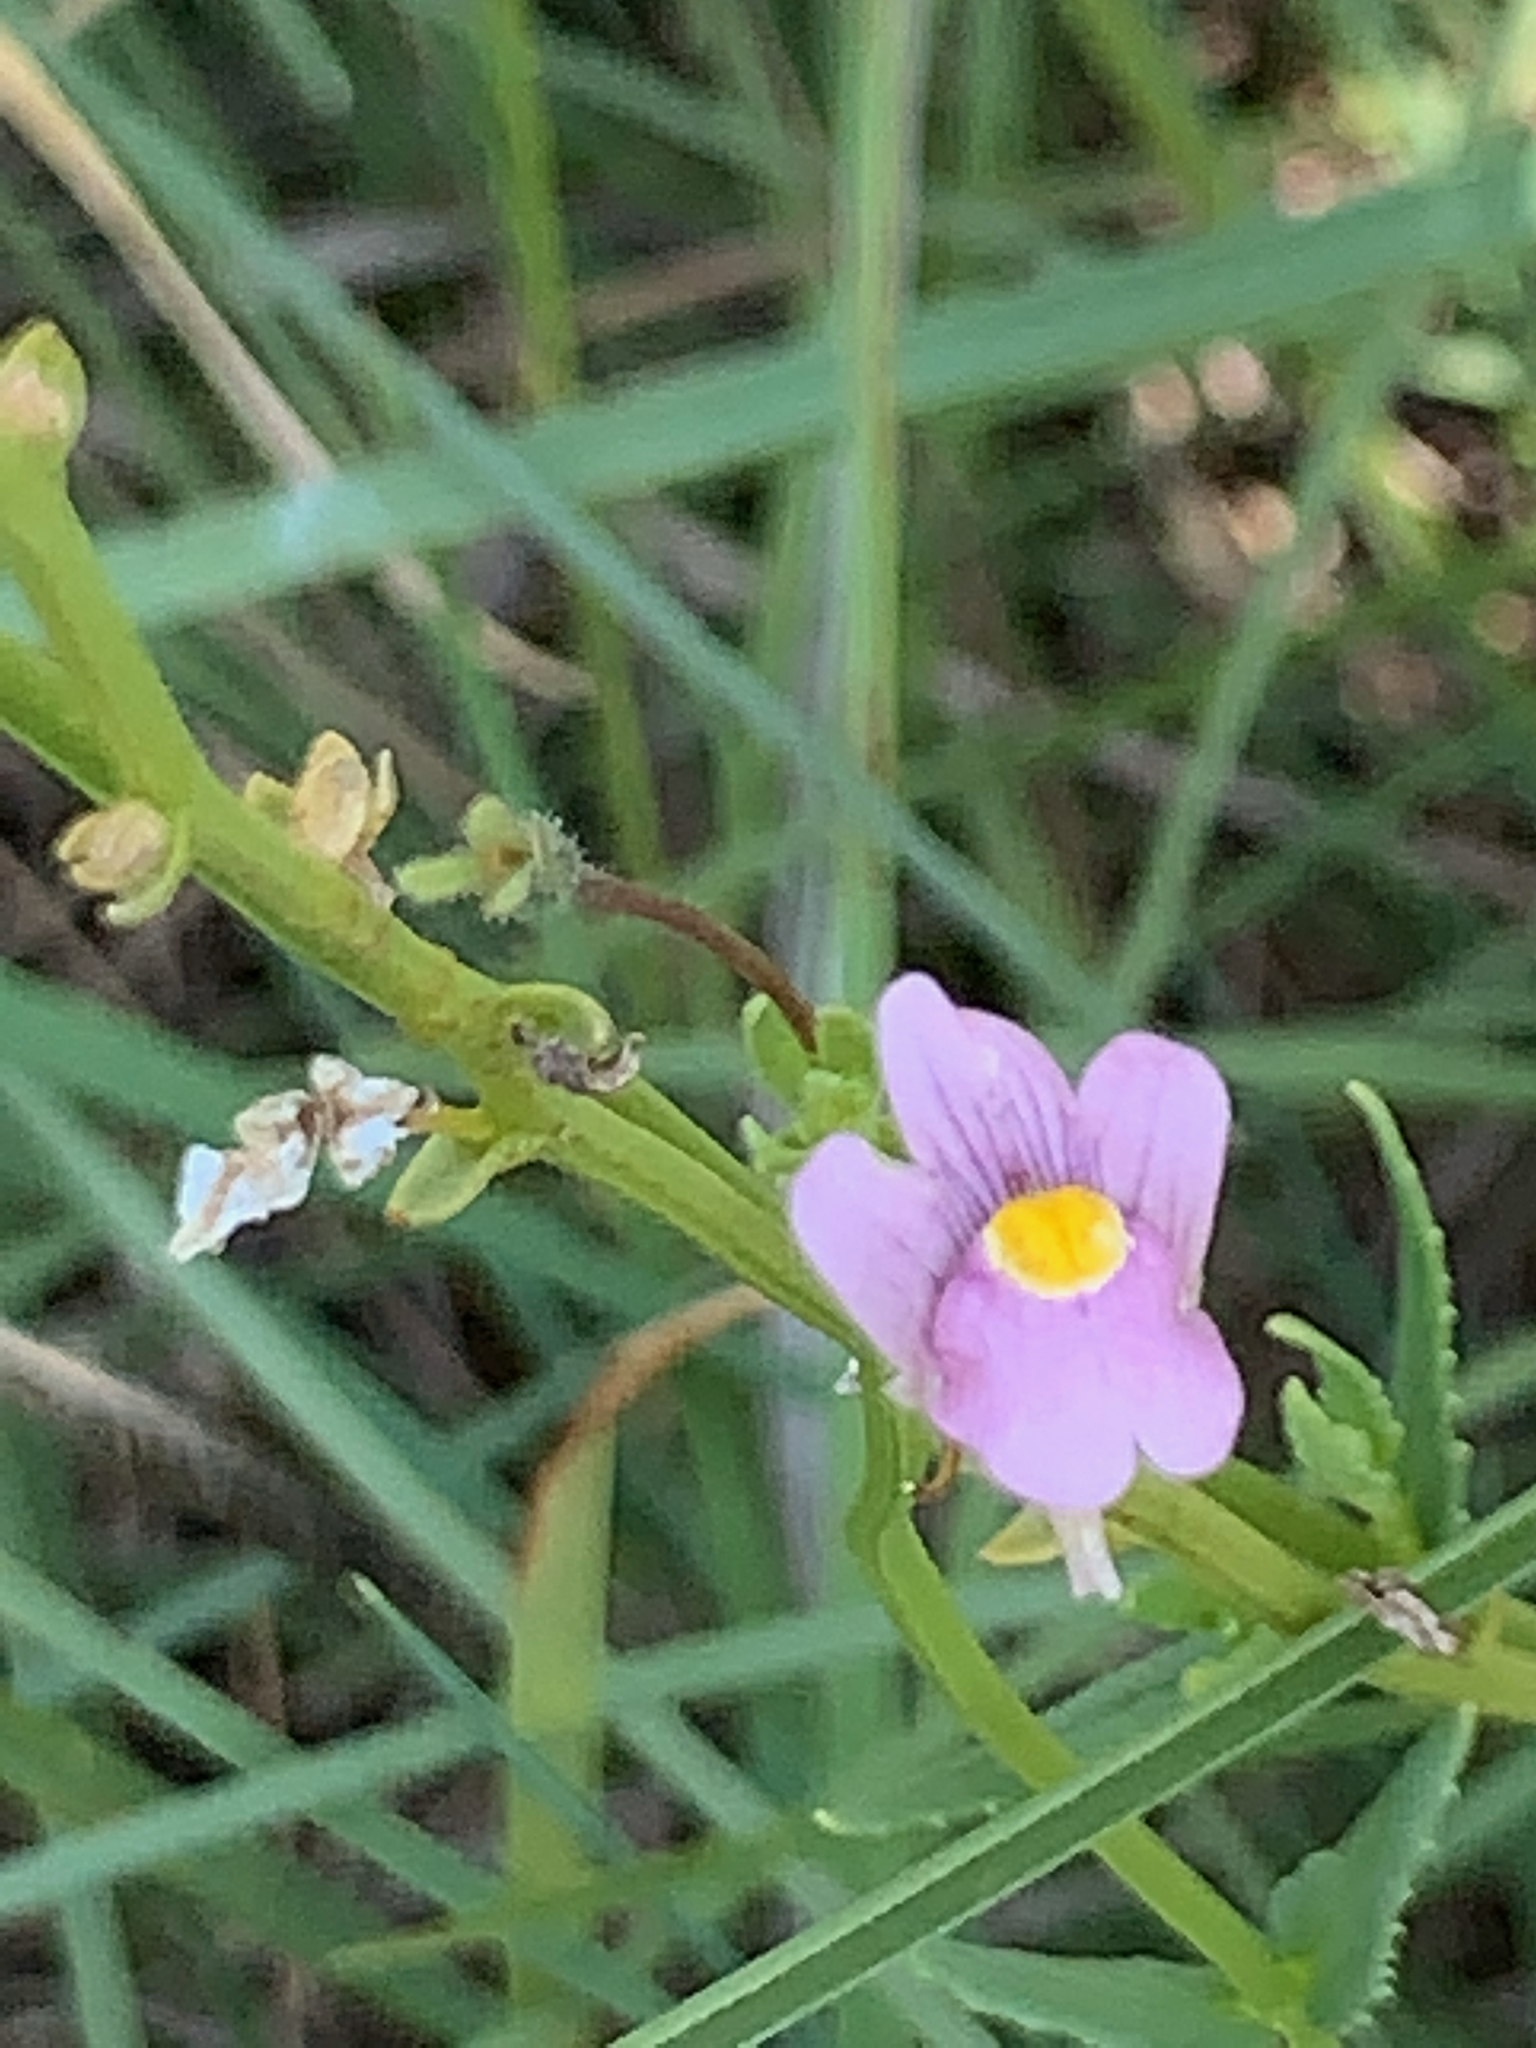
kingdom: Plantae
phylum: Tracheophyta
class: Magnoliopsida
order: Lamiales
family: Scrophulariaceae
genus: Nemesia
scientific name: Nemesia fruticans
